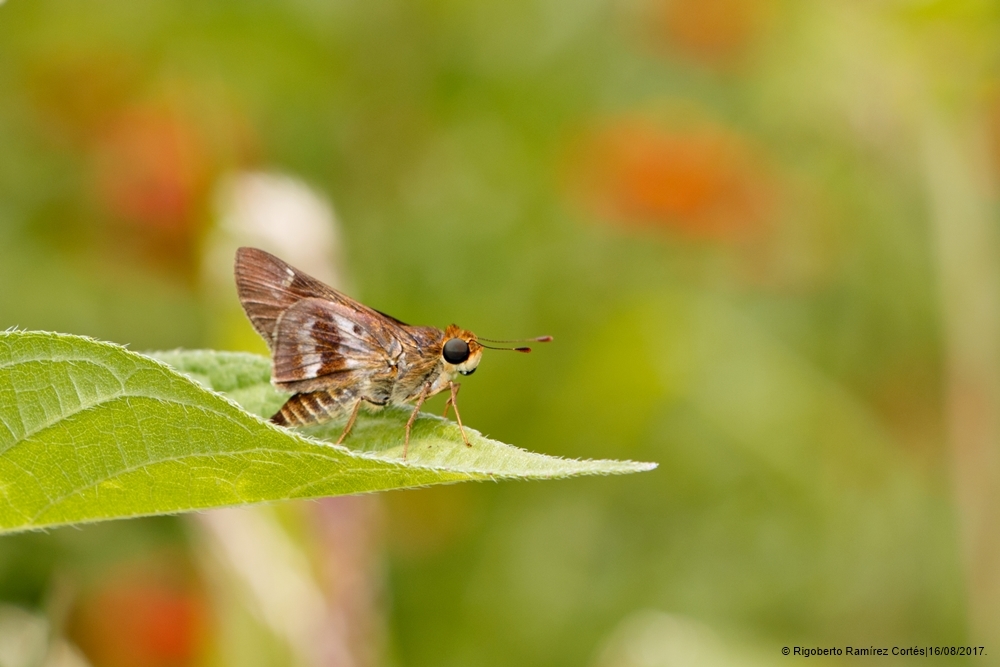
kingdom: Animalia
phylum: Arthropoda
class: Insecta
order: Lepidoptera
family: Hesperiidae
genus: Nyctelius
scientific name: Nyctelius nyctelius
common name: Violet-banded skipper
